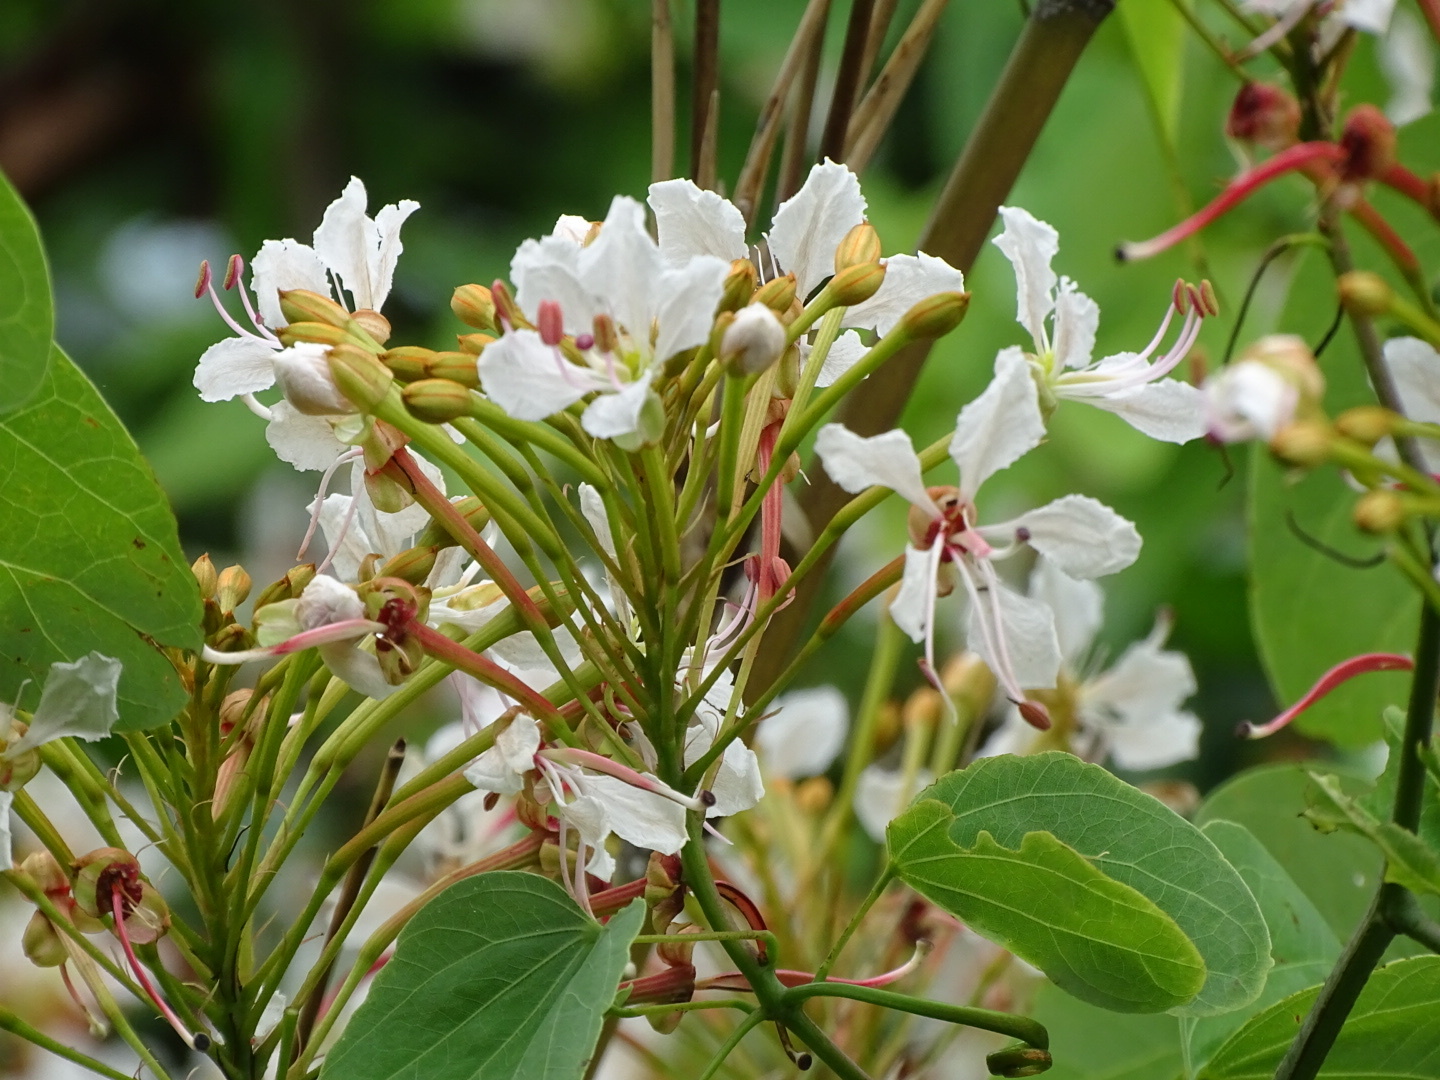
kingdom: Plantae
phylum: Tracheophyta
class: Magnoliopsida
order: Fabales
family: Fabaceae
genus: Cheniella
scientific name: Cheniella glauca
